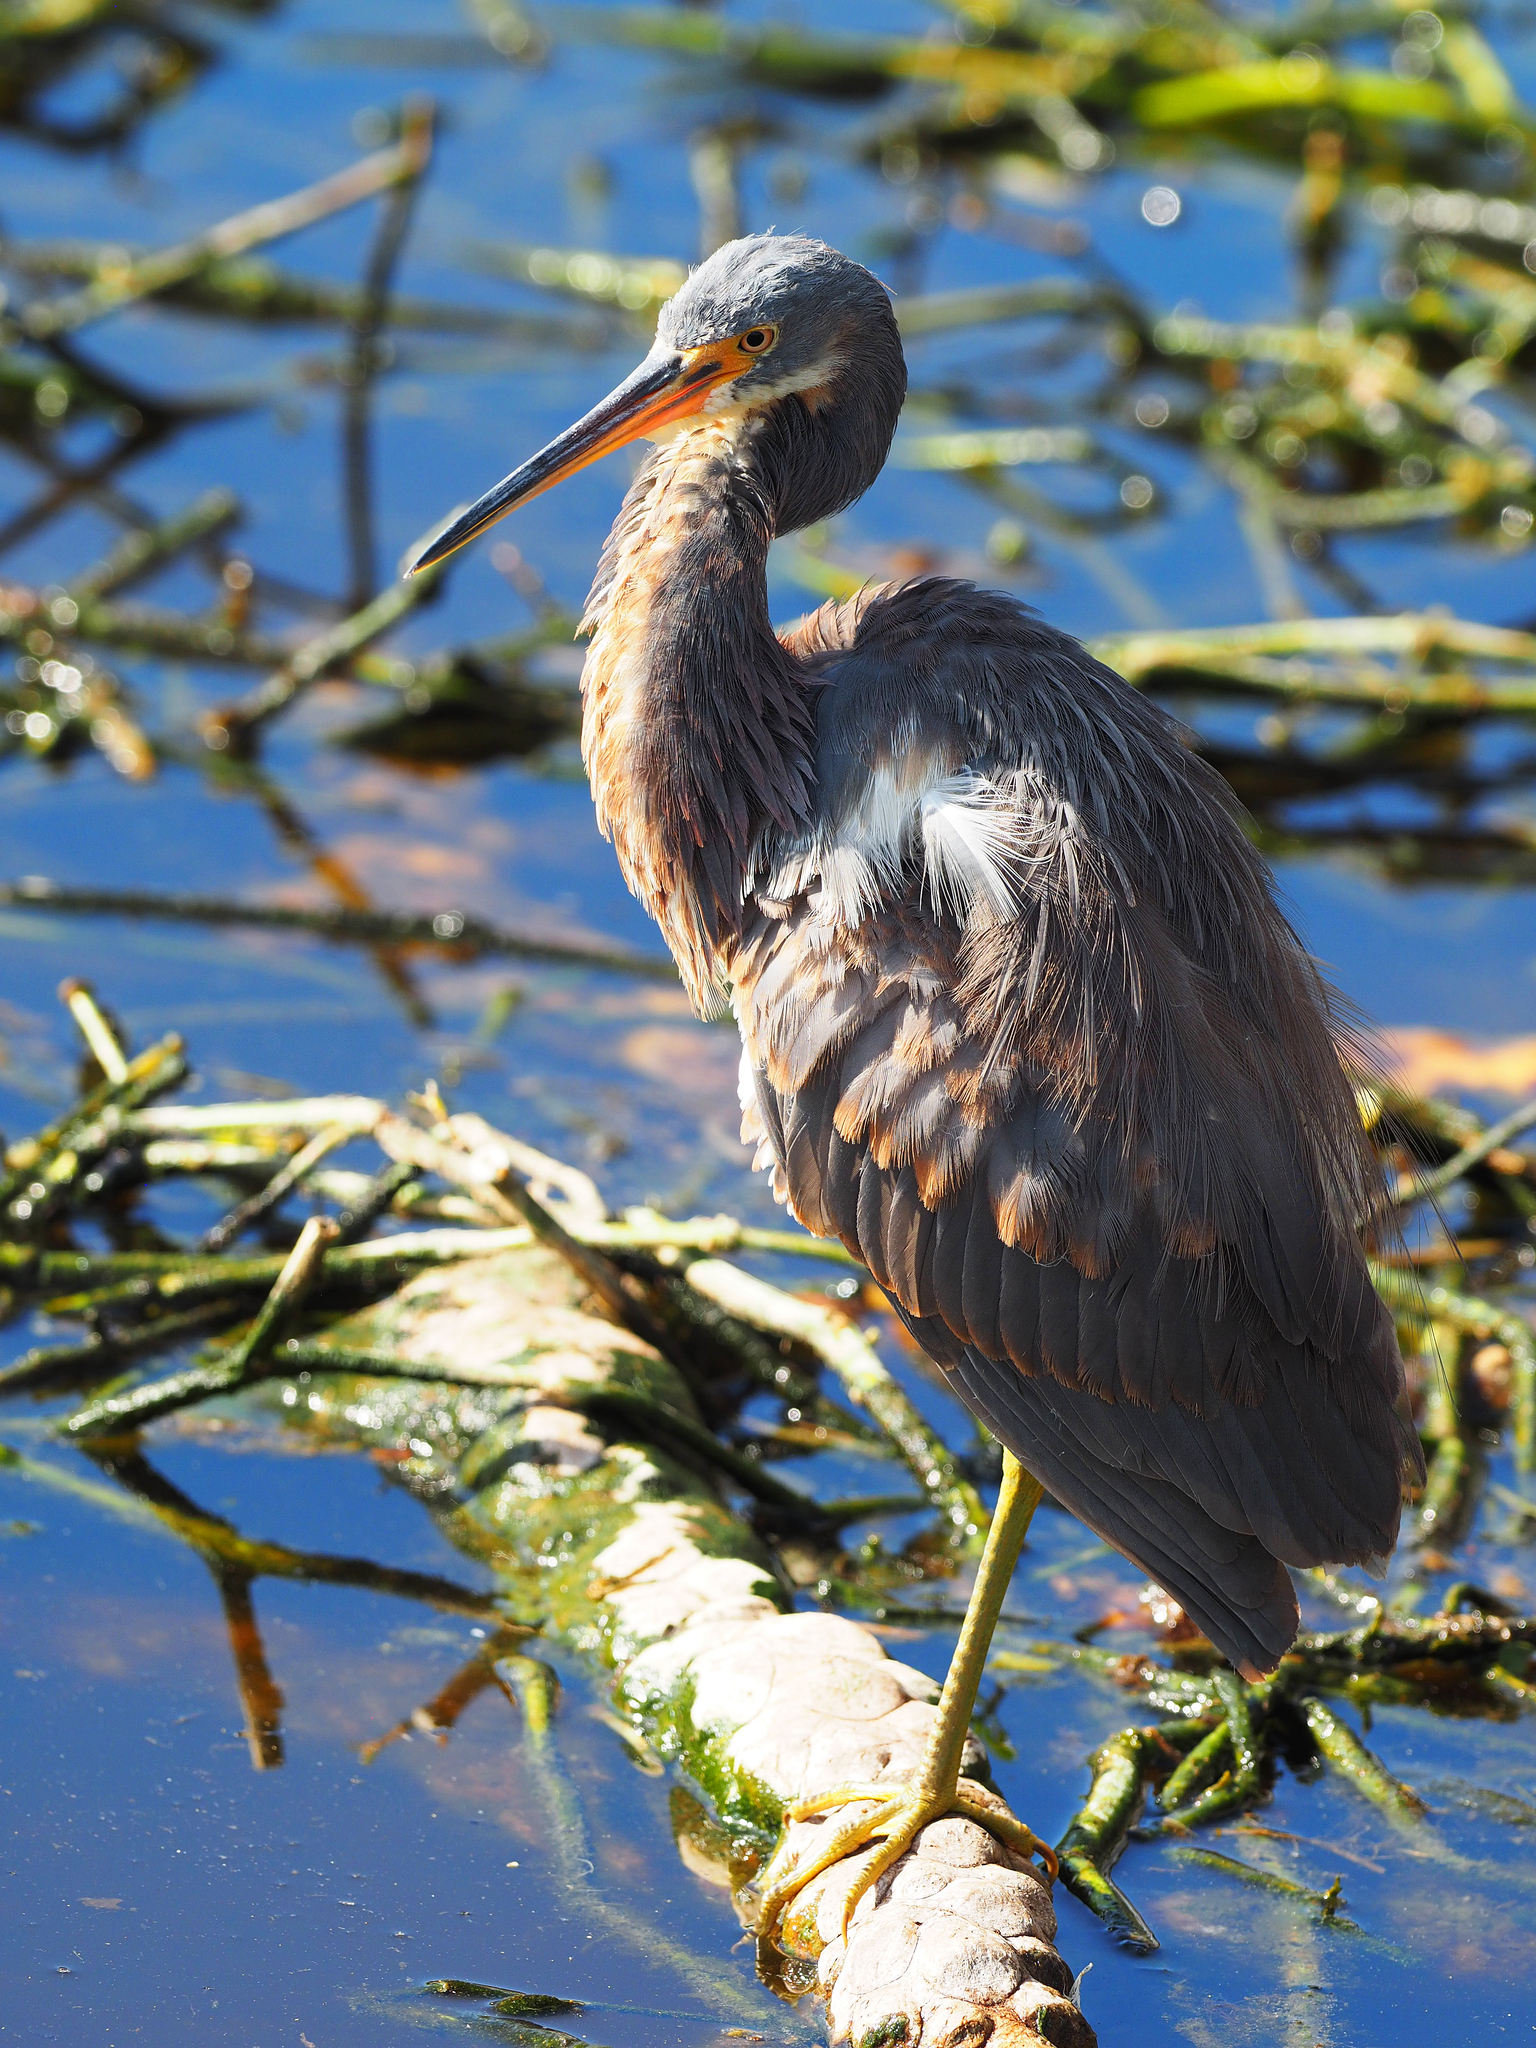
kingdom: Animalia
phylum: Chordata
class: Aves
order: Pelecaniformes
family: Ardeidae
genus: Egretta
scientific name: Egretta tricolor
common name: Tricolored heron
